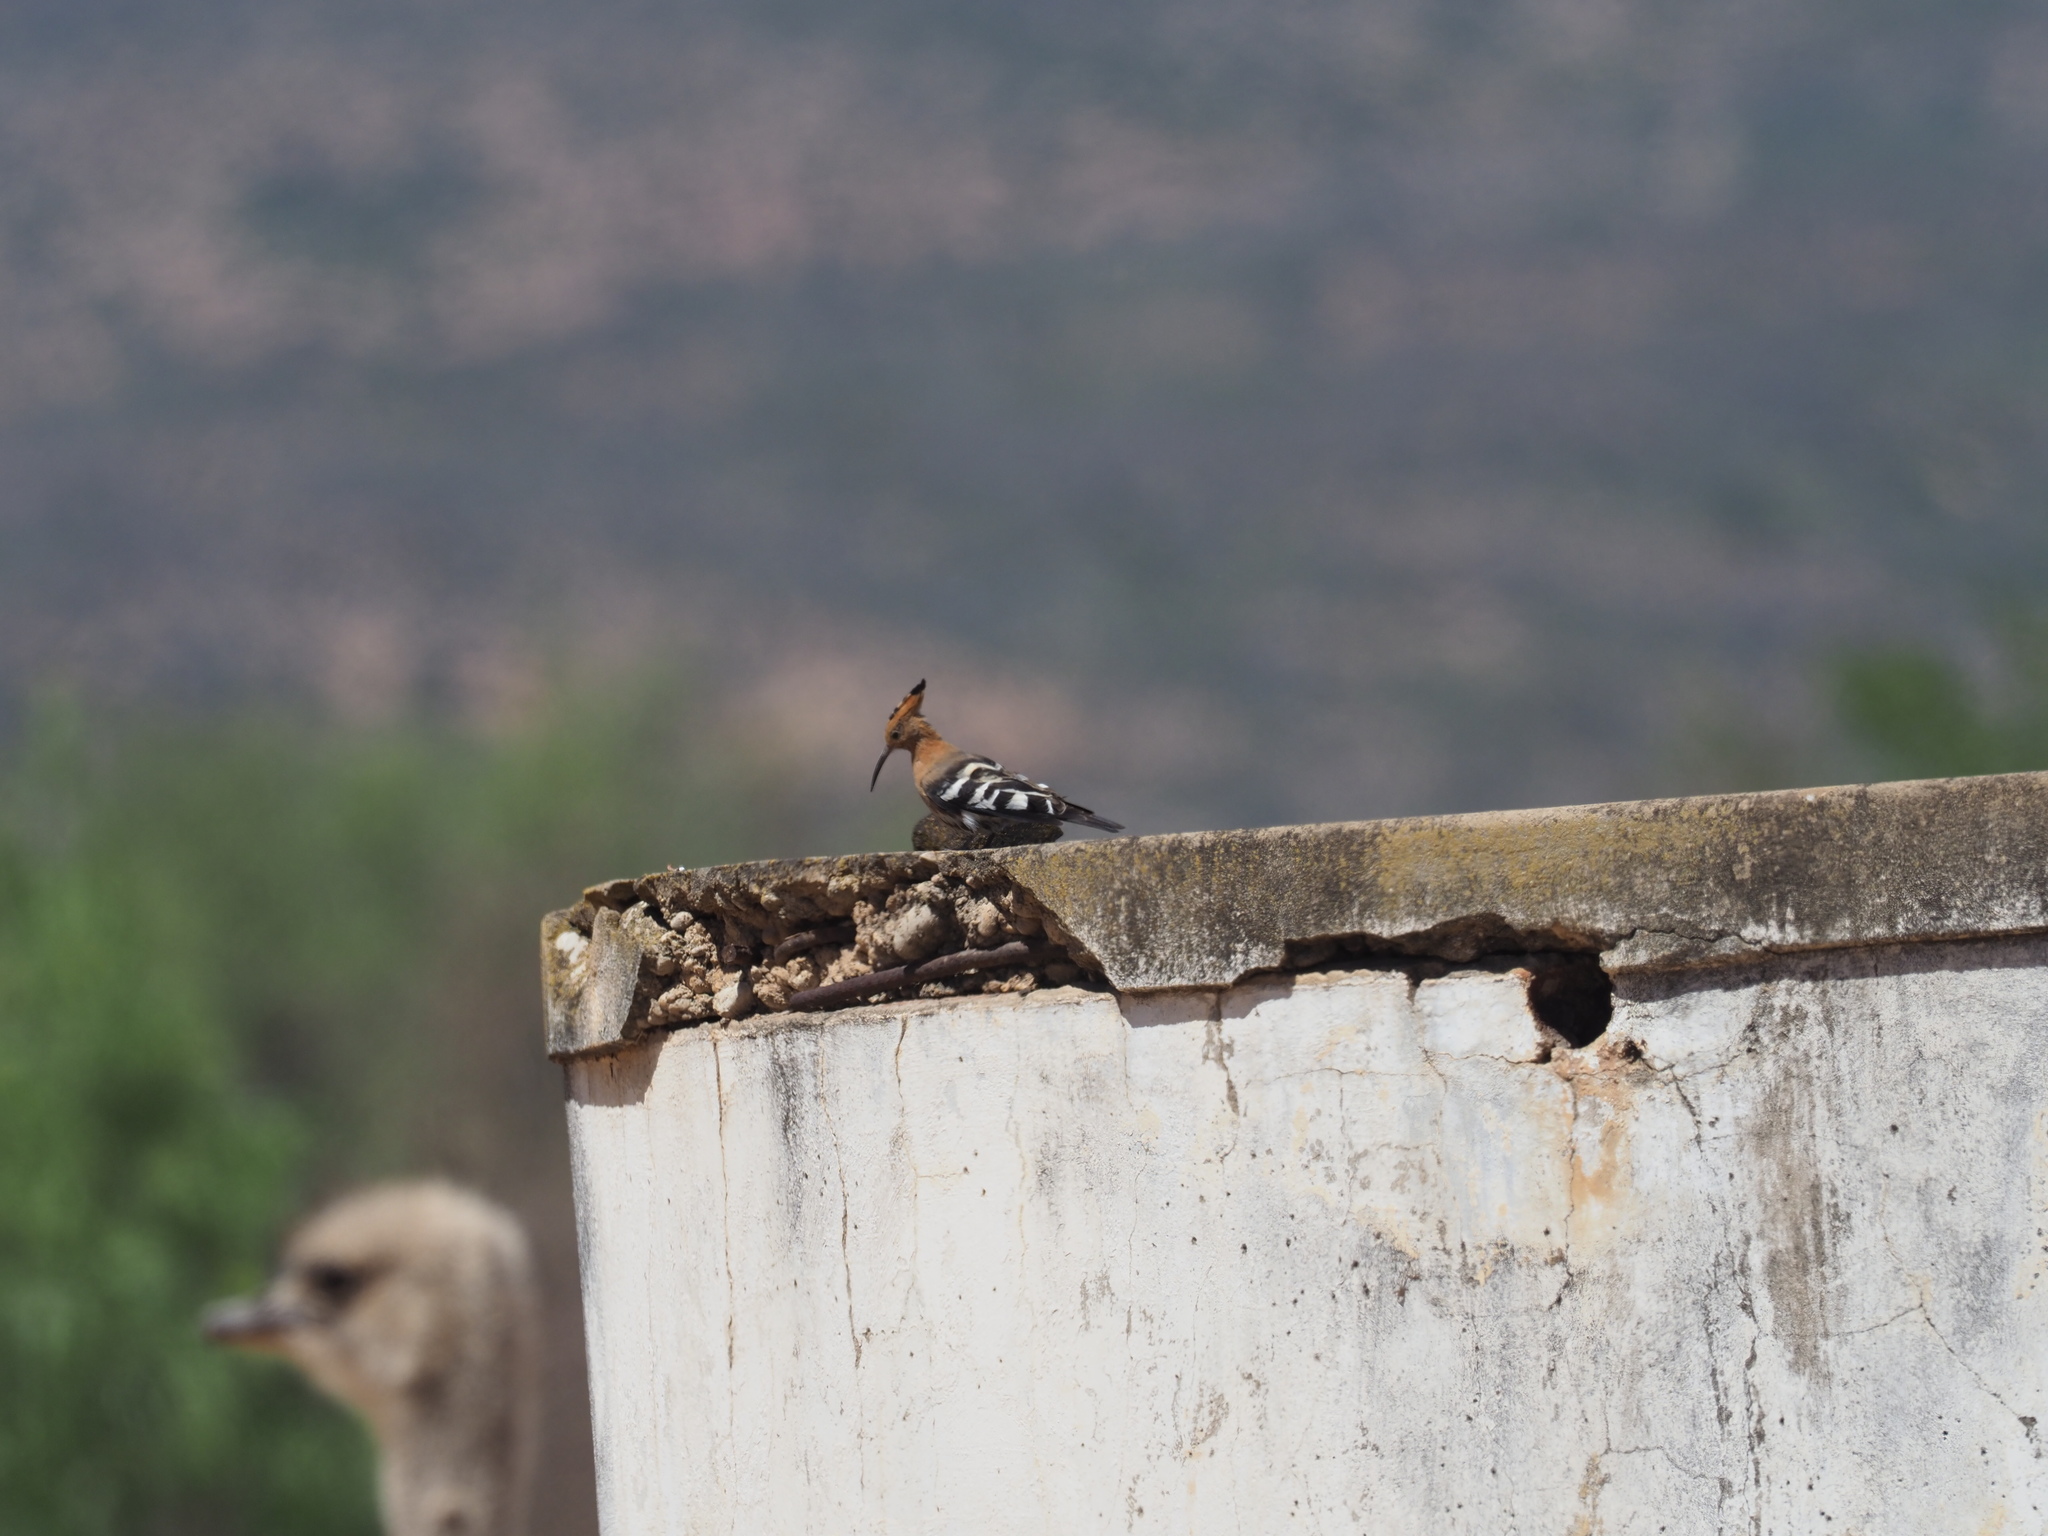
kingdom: Animalia
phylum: Chordata
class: Aves
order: Bucerotiformes
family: Upupidae
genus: Upupa
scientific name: Upupa africana
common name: African hoopoe
